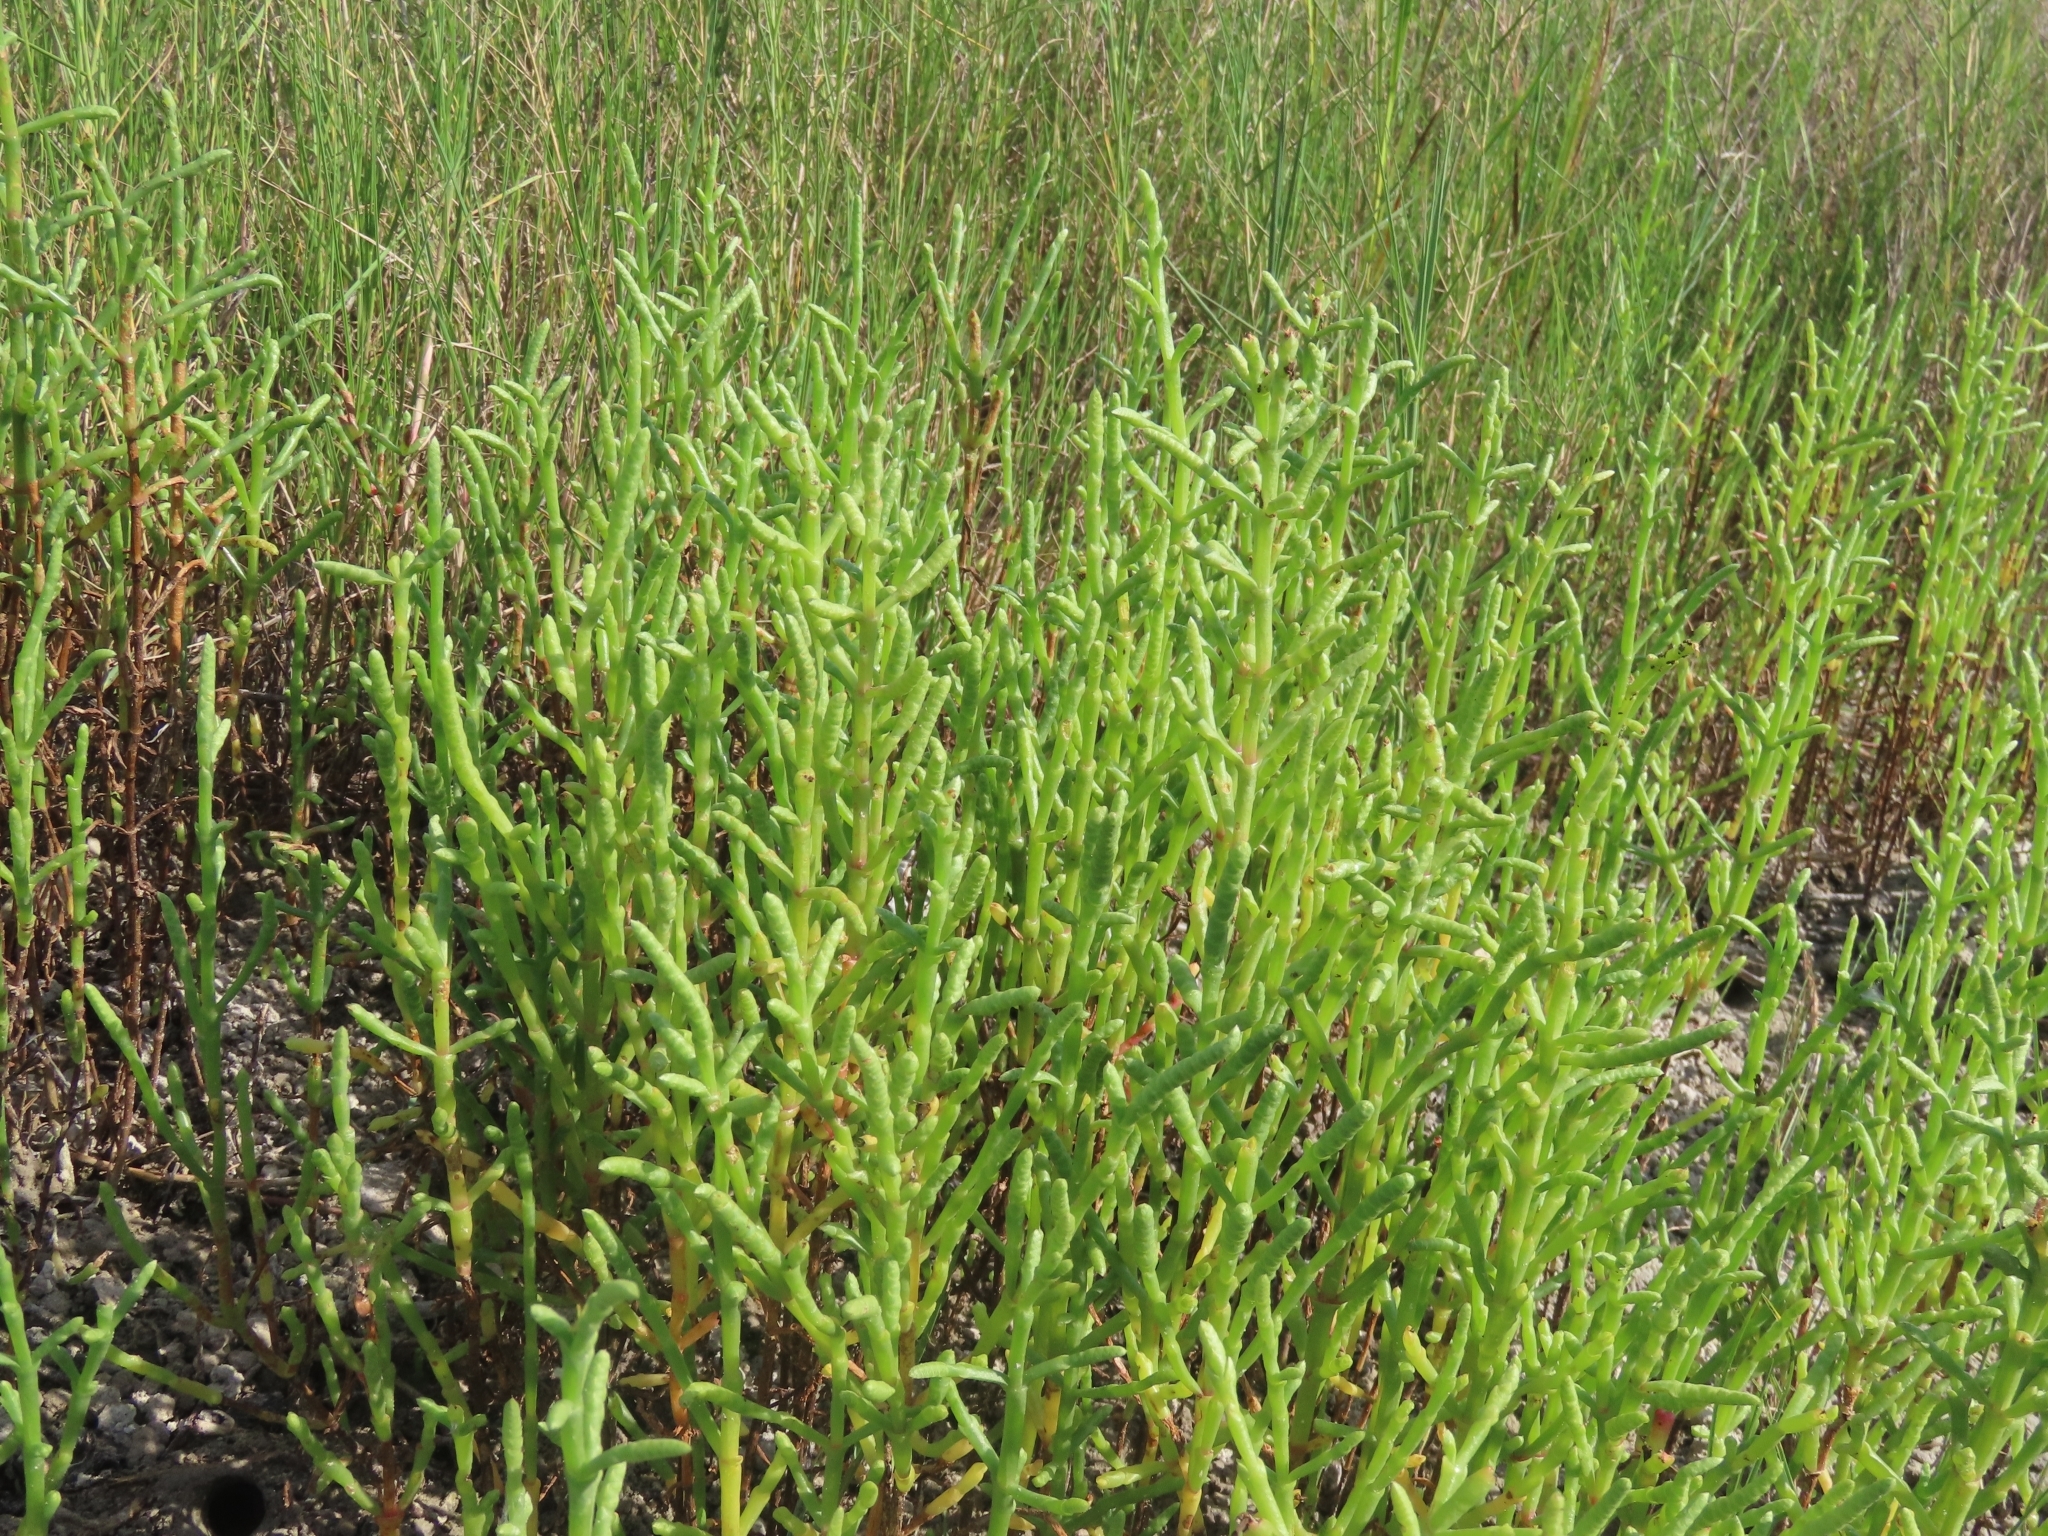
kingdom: Plantae
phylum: Tracheophyta
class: Magnoliopsida
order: Caryophyllales
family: Amaranthaceae
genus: Salicornia
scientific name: Salicornia virginica
